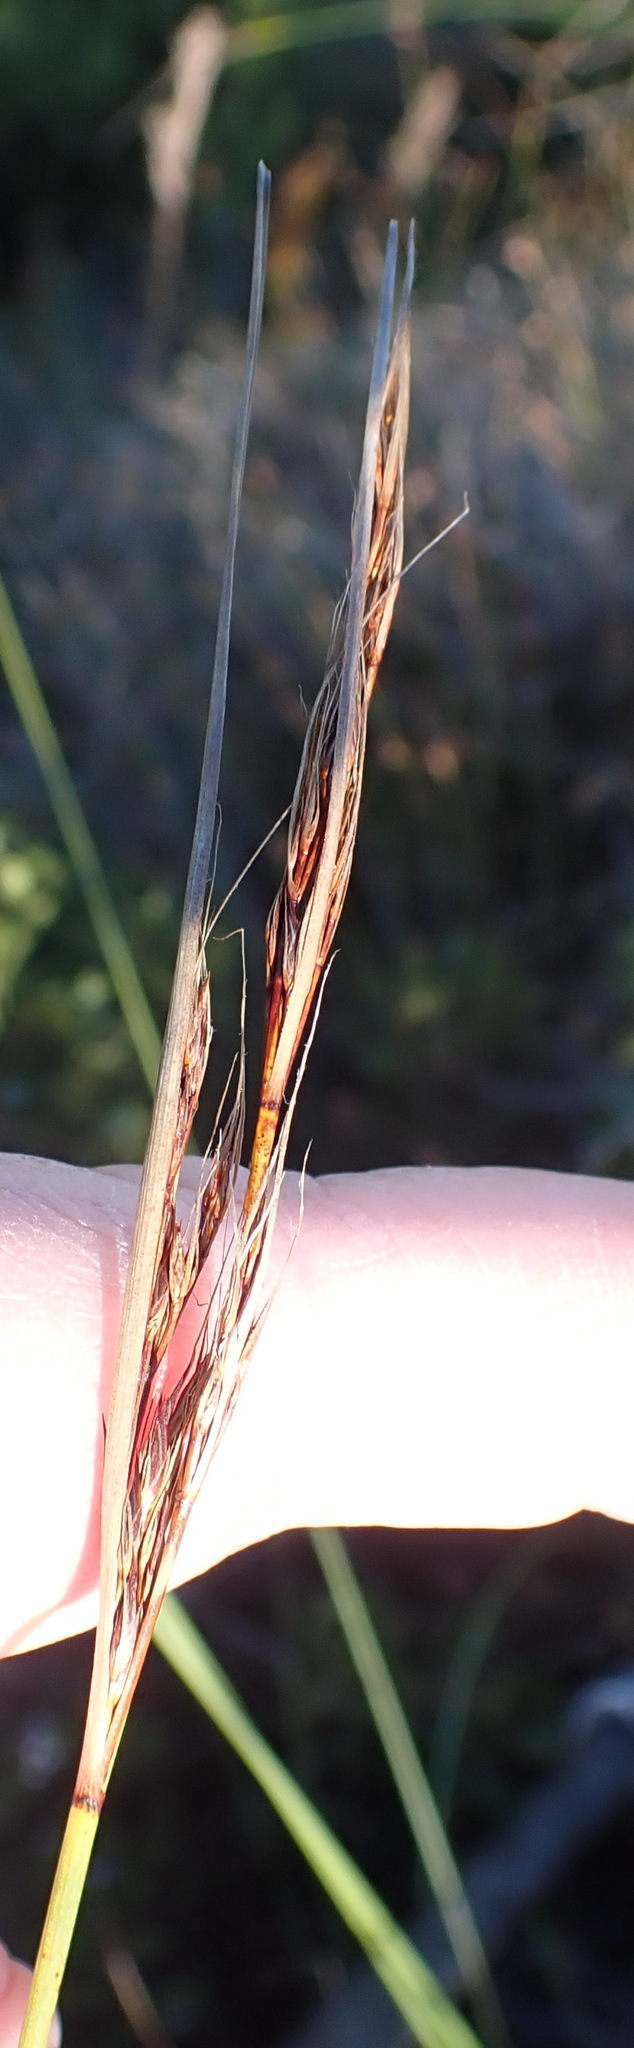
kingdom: Plantae
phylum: Tracheophyta
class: Liliopsida
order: Poales
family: Cyperaceae
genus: Schoenus
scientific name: Schoenus graciliculmis
